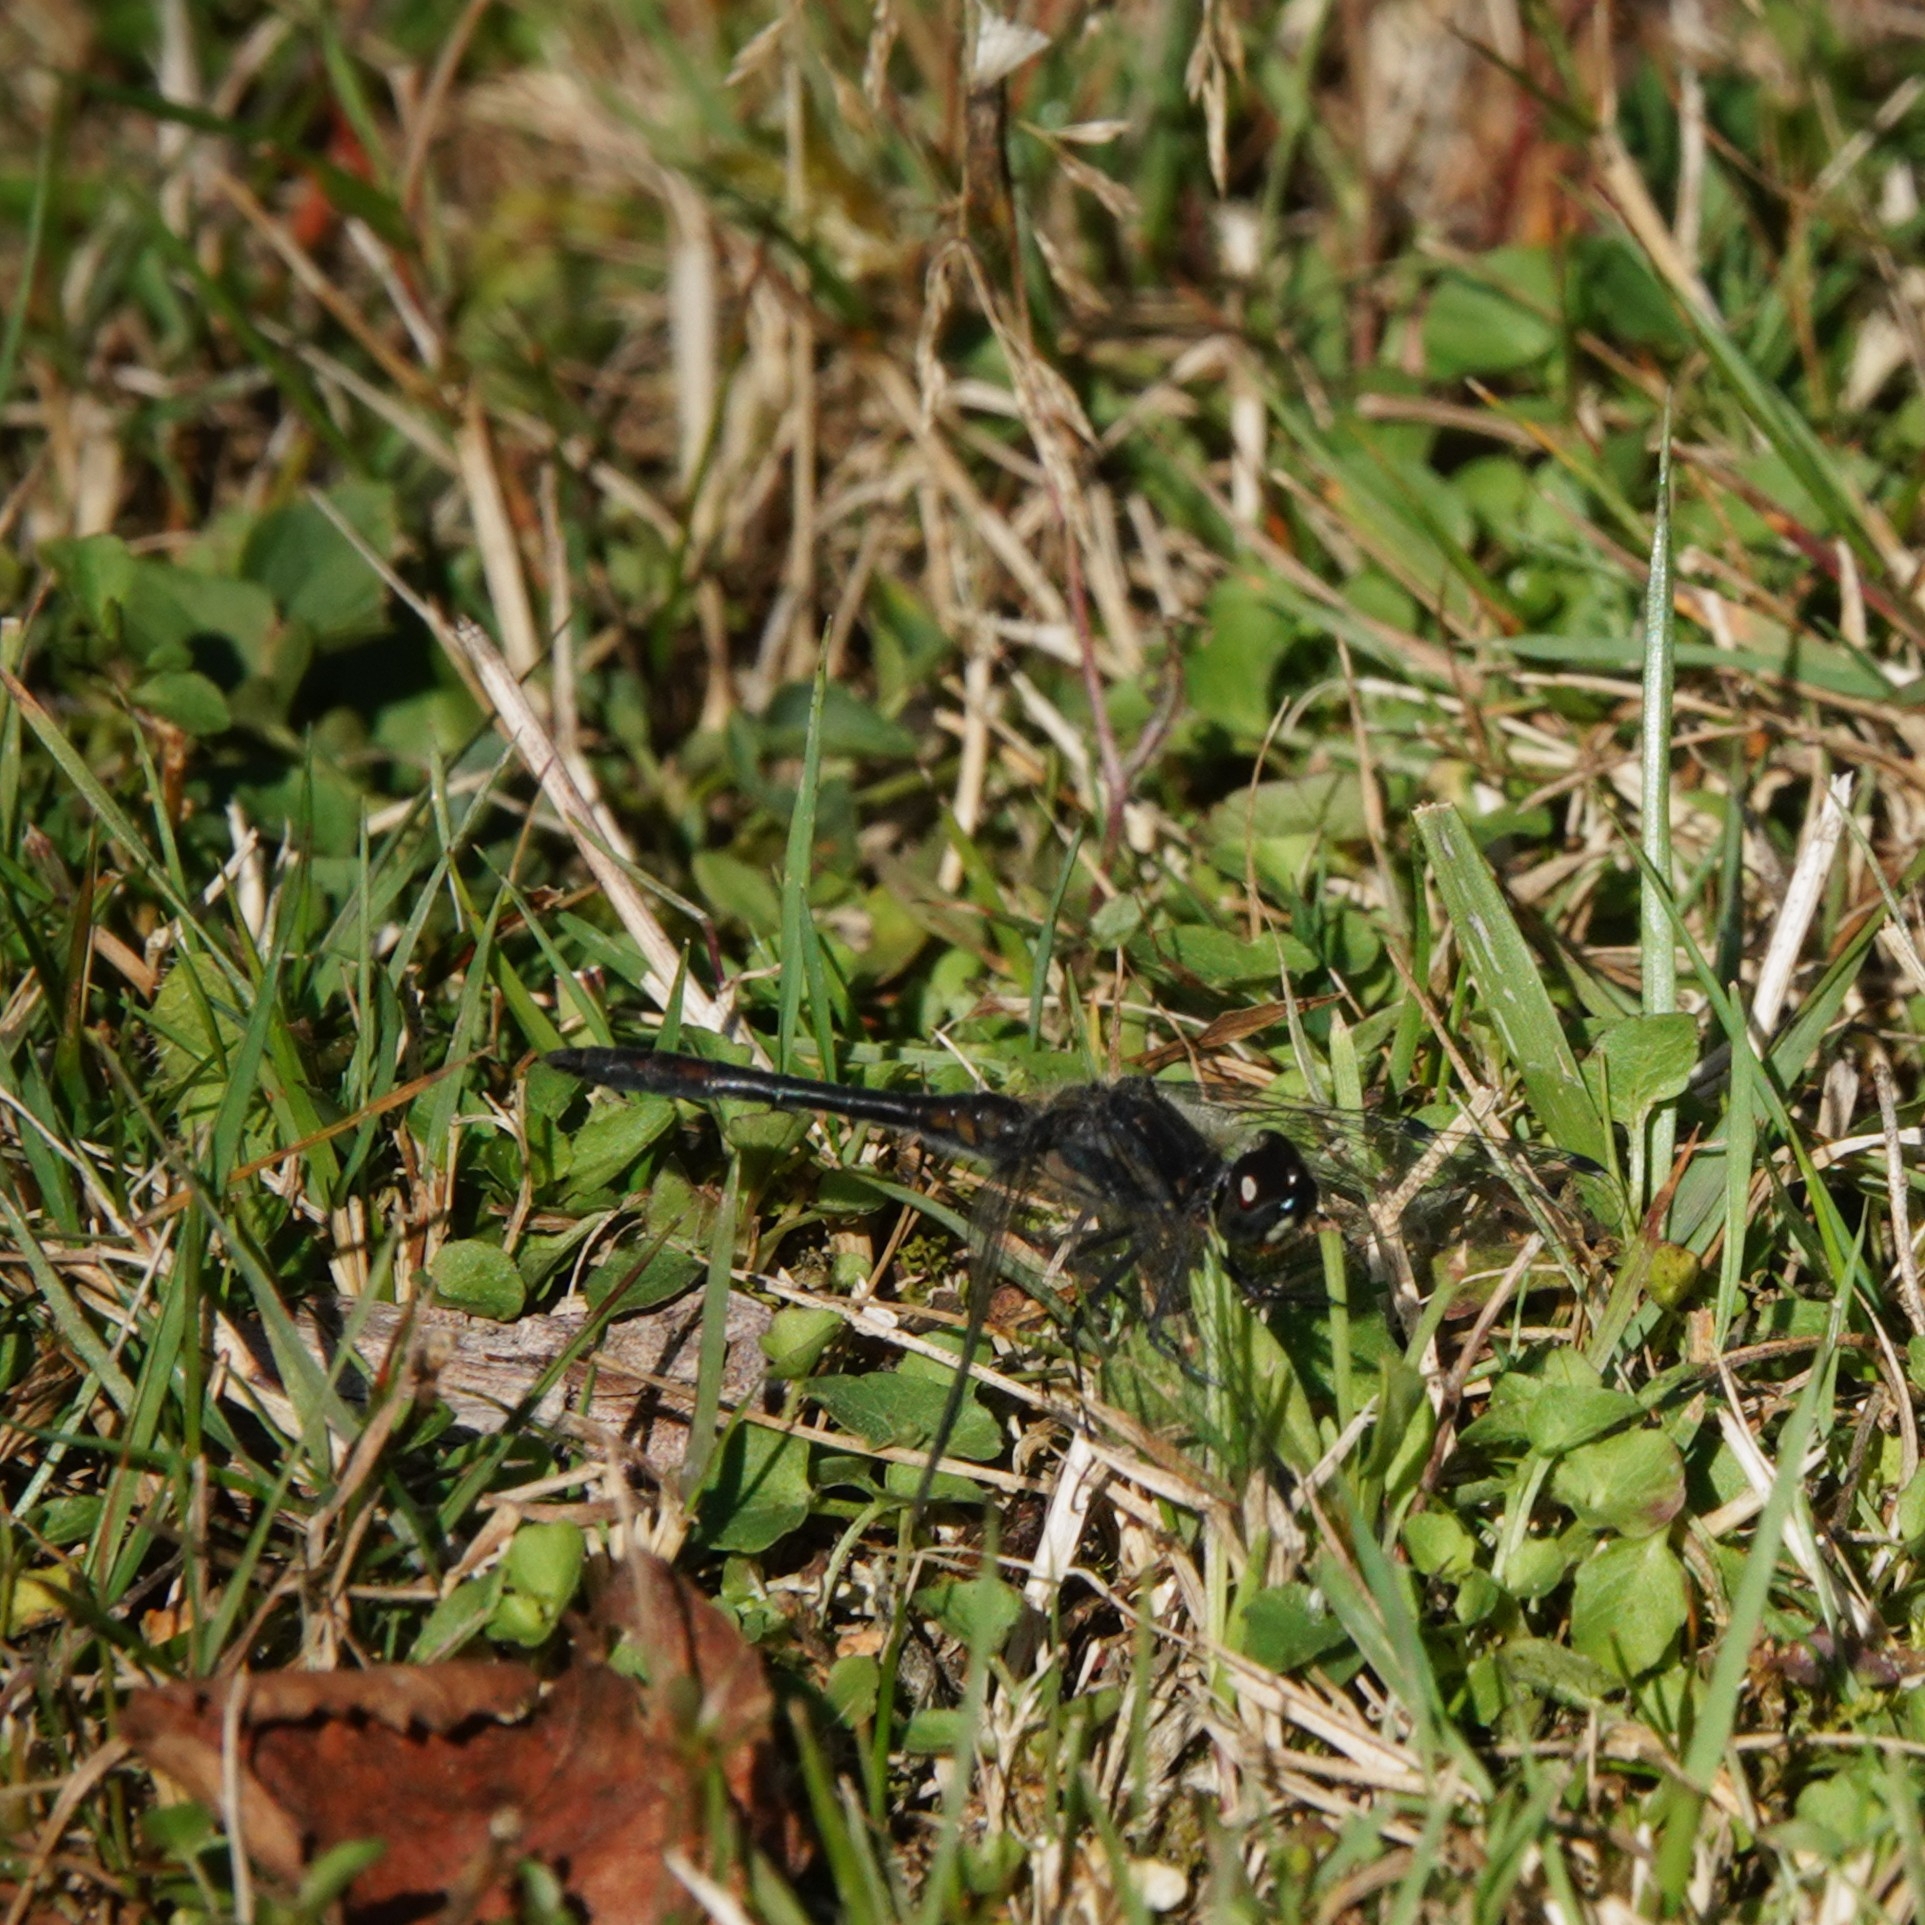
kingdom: Animalia
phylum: Arthropoda
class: Insecta
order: Odonata
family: Libellulidae
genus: Sympetrum
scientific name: Sympetrum danae
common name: Black darter
